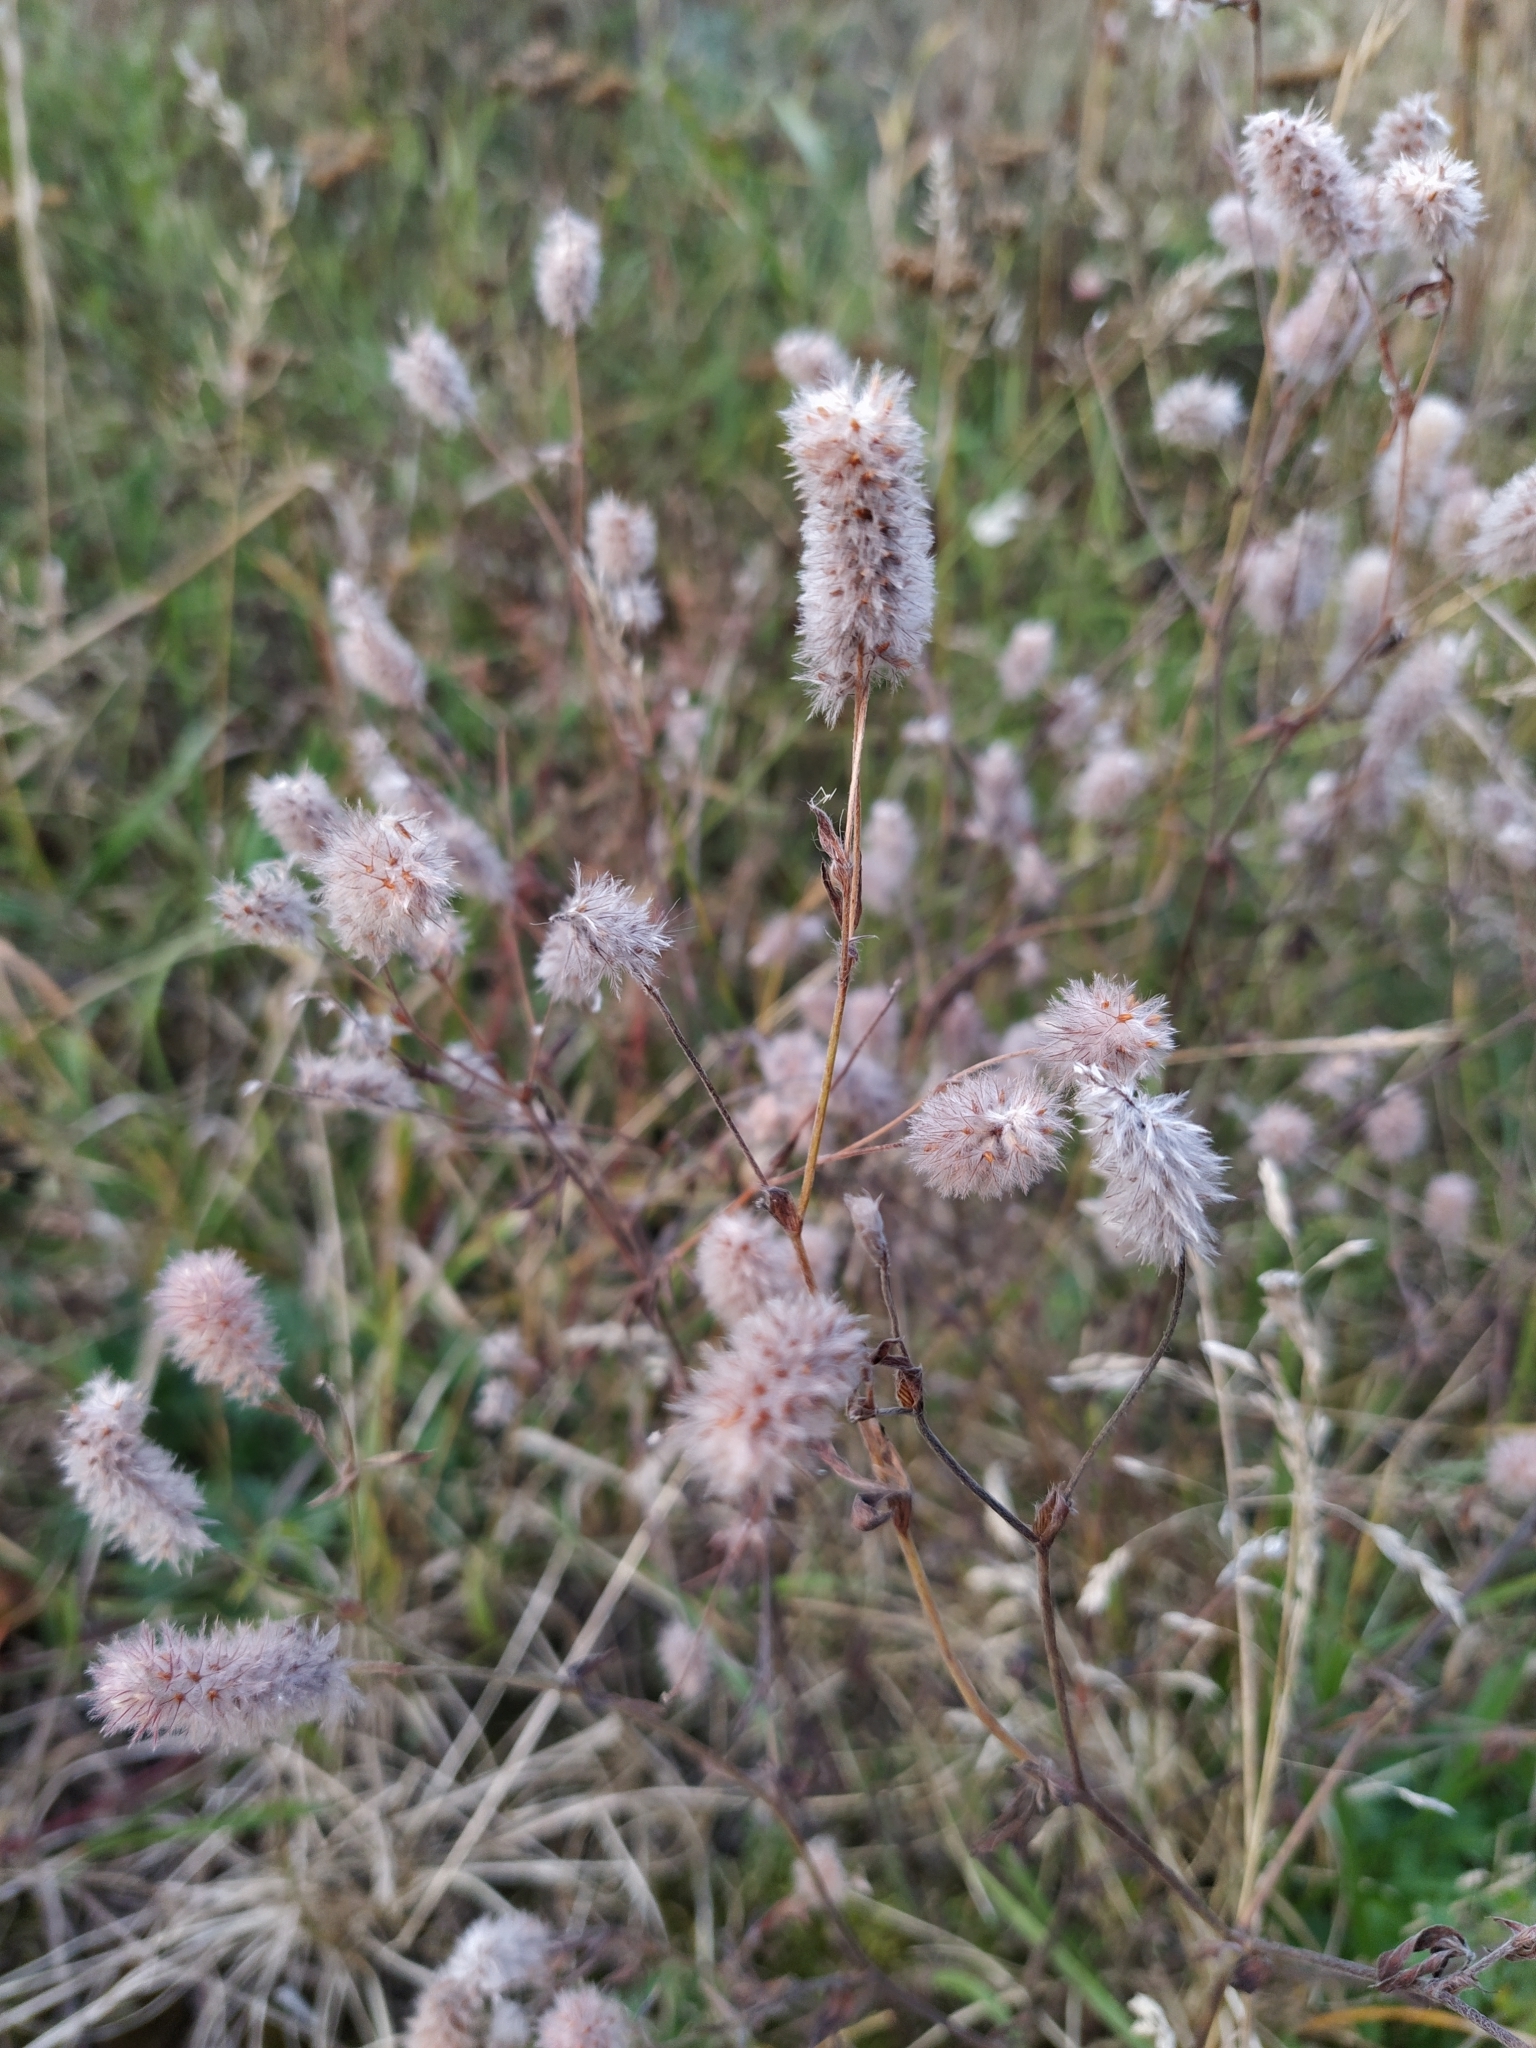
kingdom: Plantae
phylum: Tracheophyta
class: Magnoliopsida
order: Fabales
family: Fabaceae
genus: Trifolium
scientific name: Trifolium arvense
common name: Hare's-foot clover
